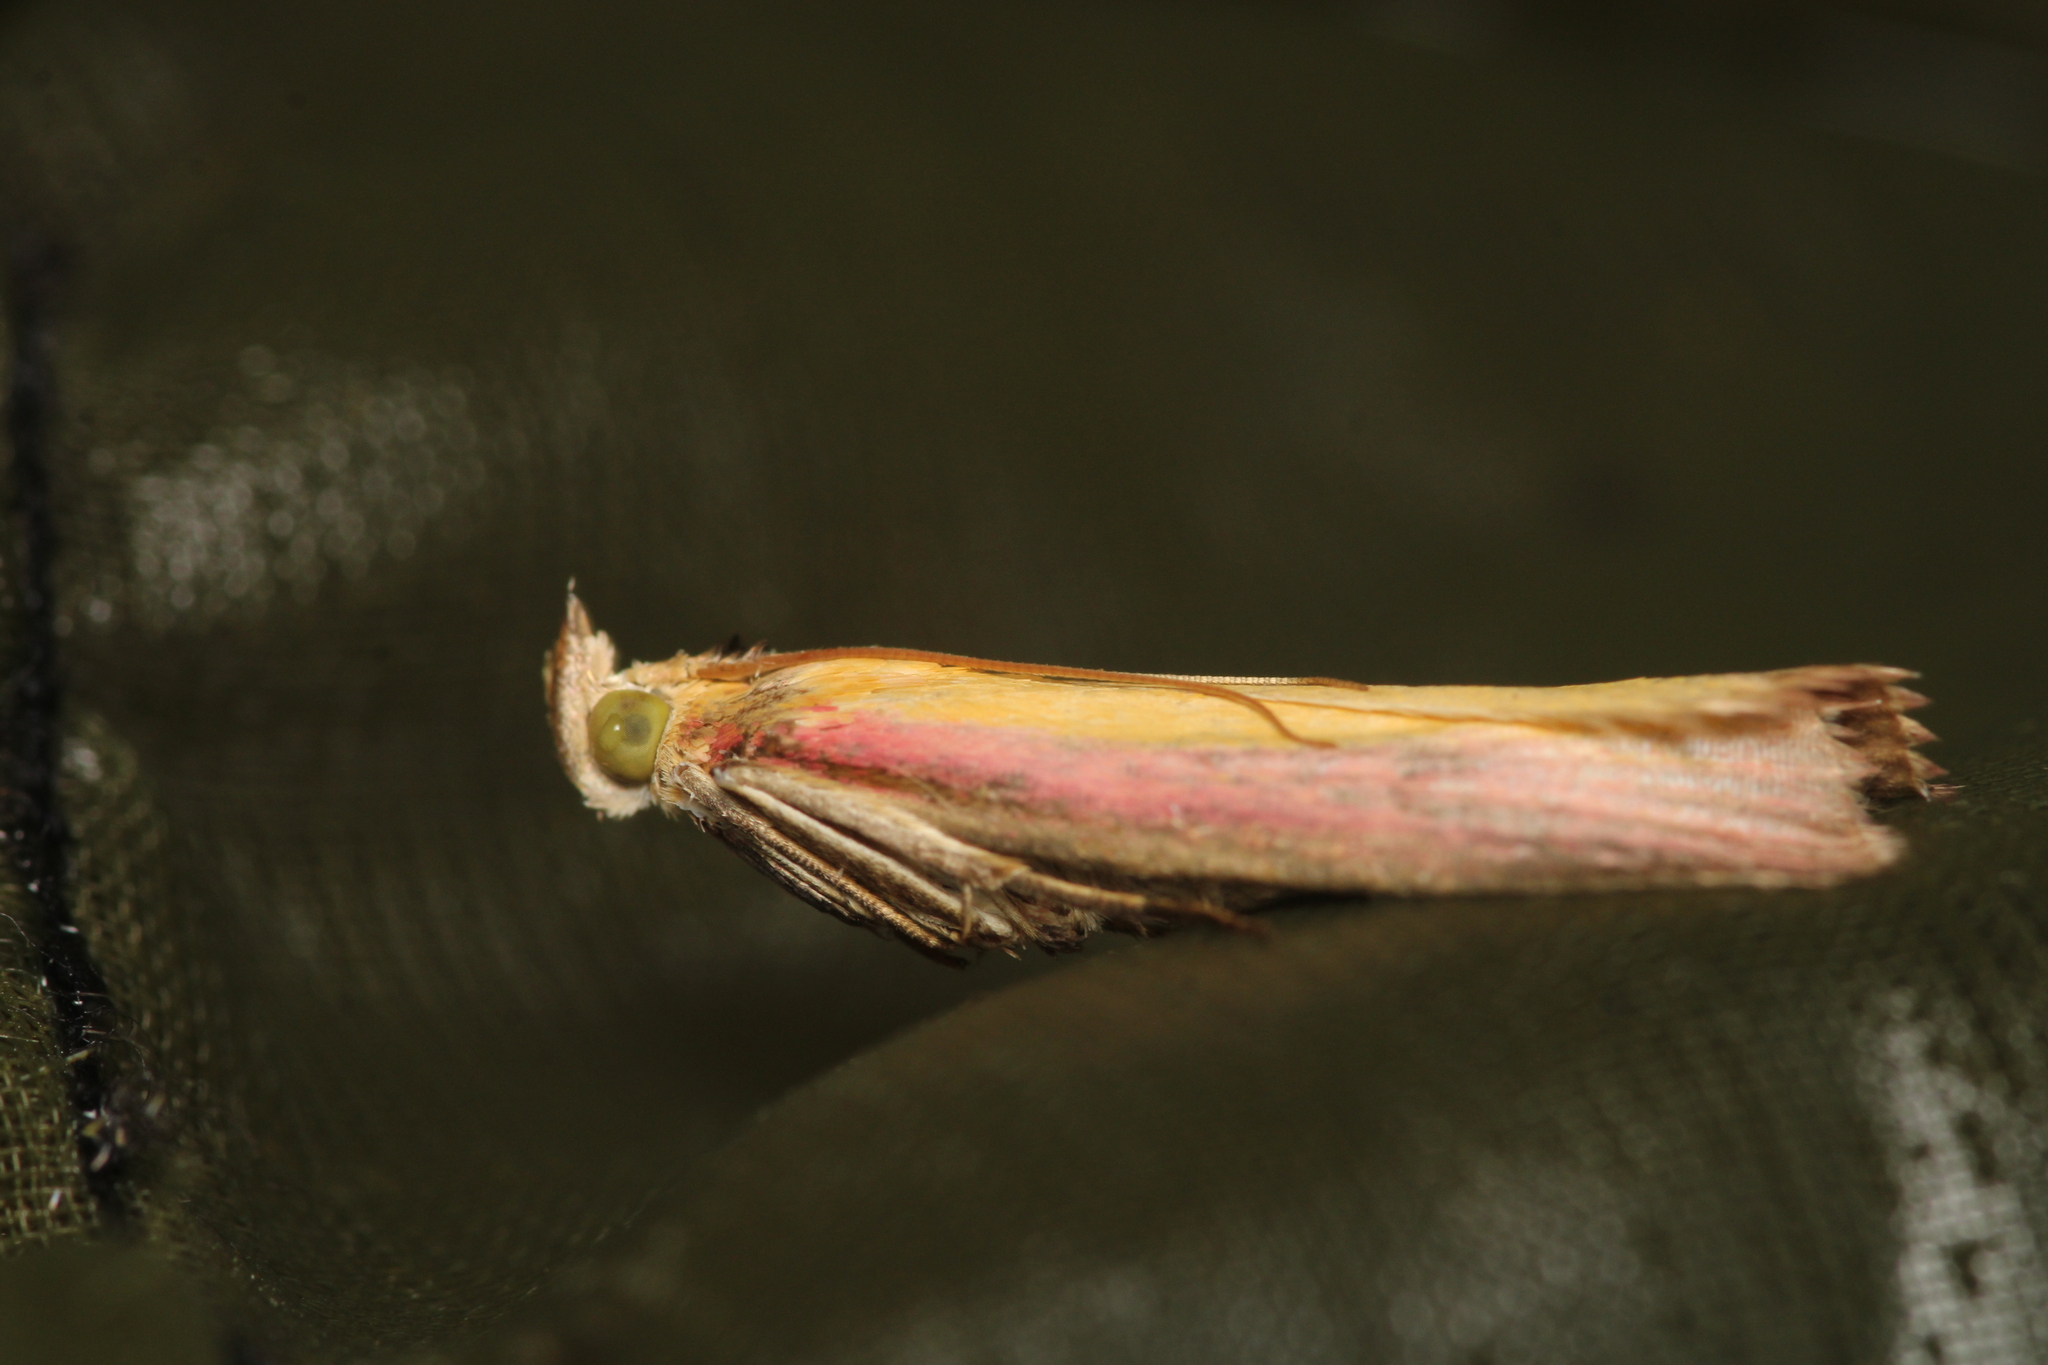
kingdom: Animalia
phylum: Arthropoda
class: Insecta
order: Lepidoptera
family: Pyralidae
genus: Oncocera
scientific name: Oncocera semirubella
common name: Rosy-striped knot-horn
